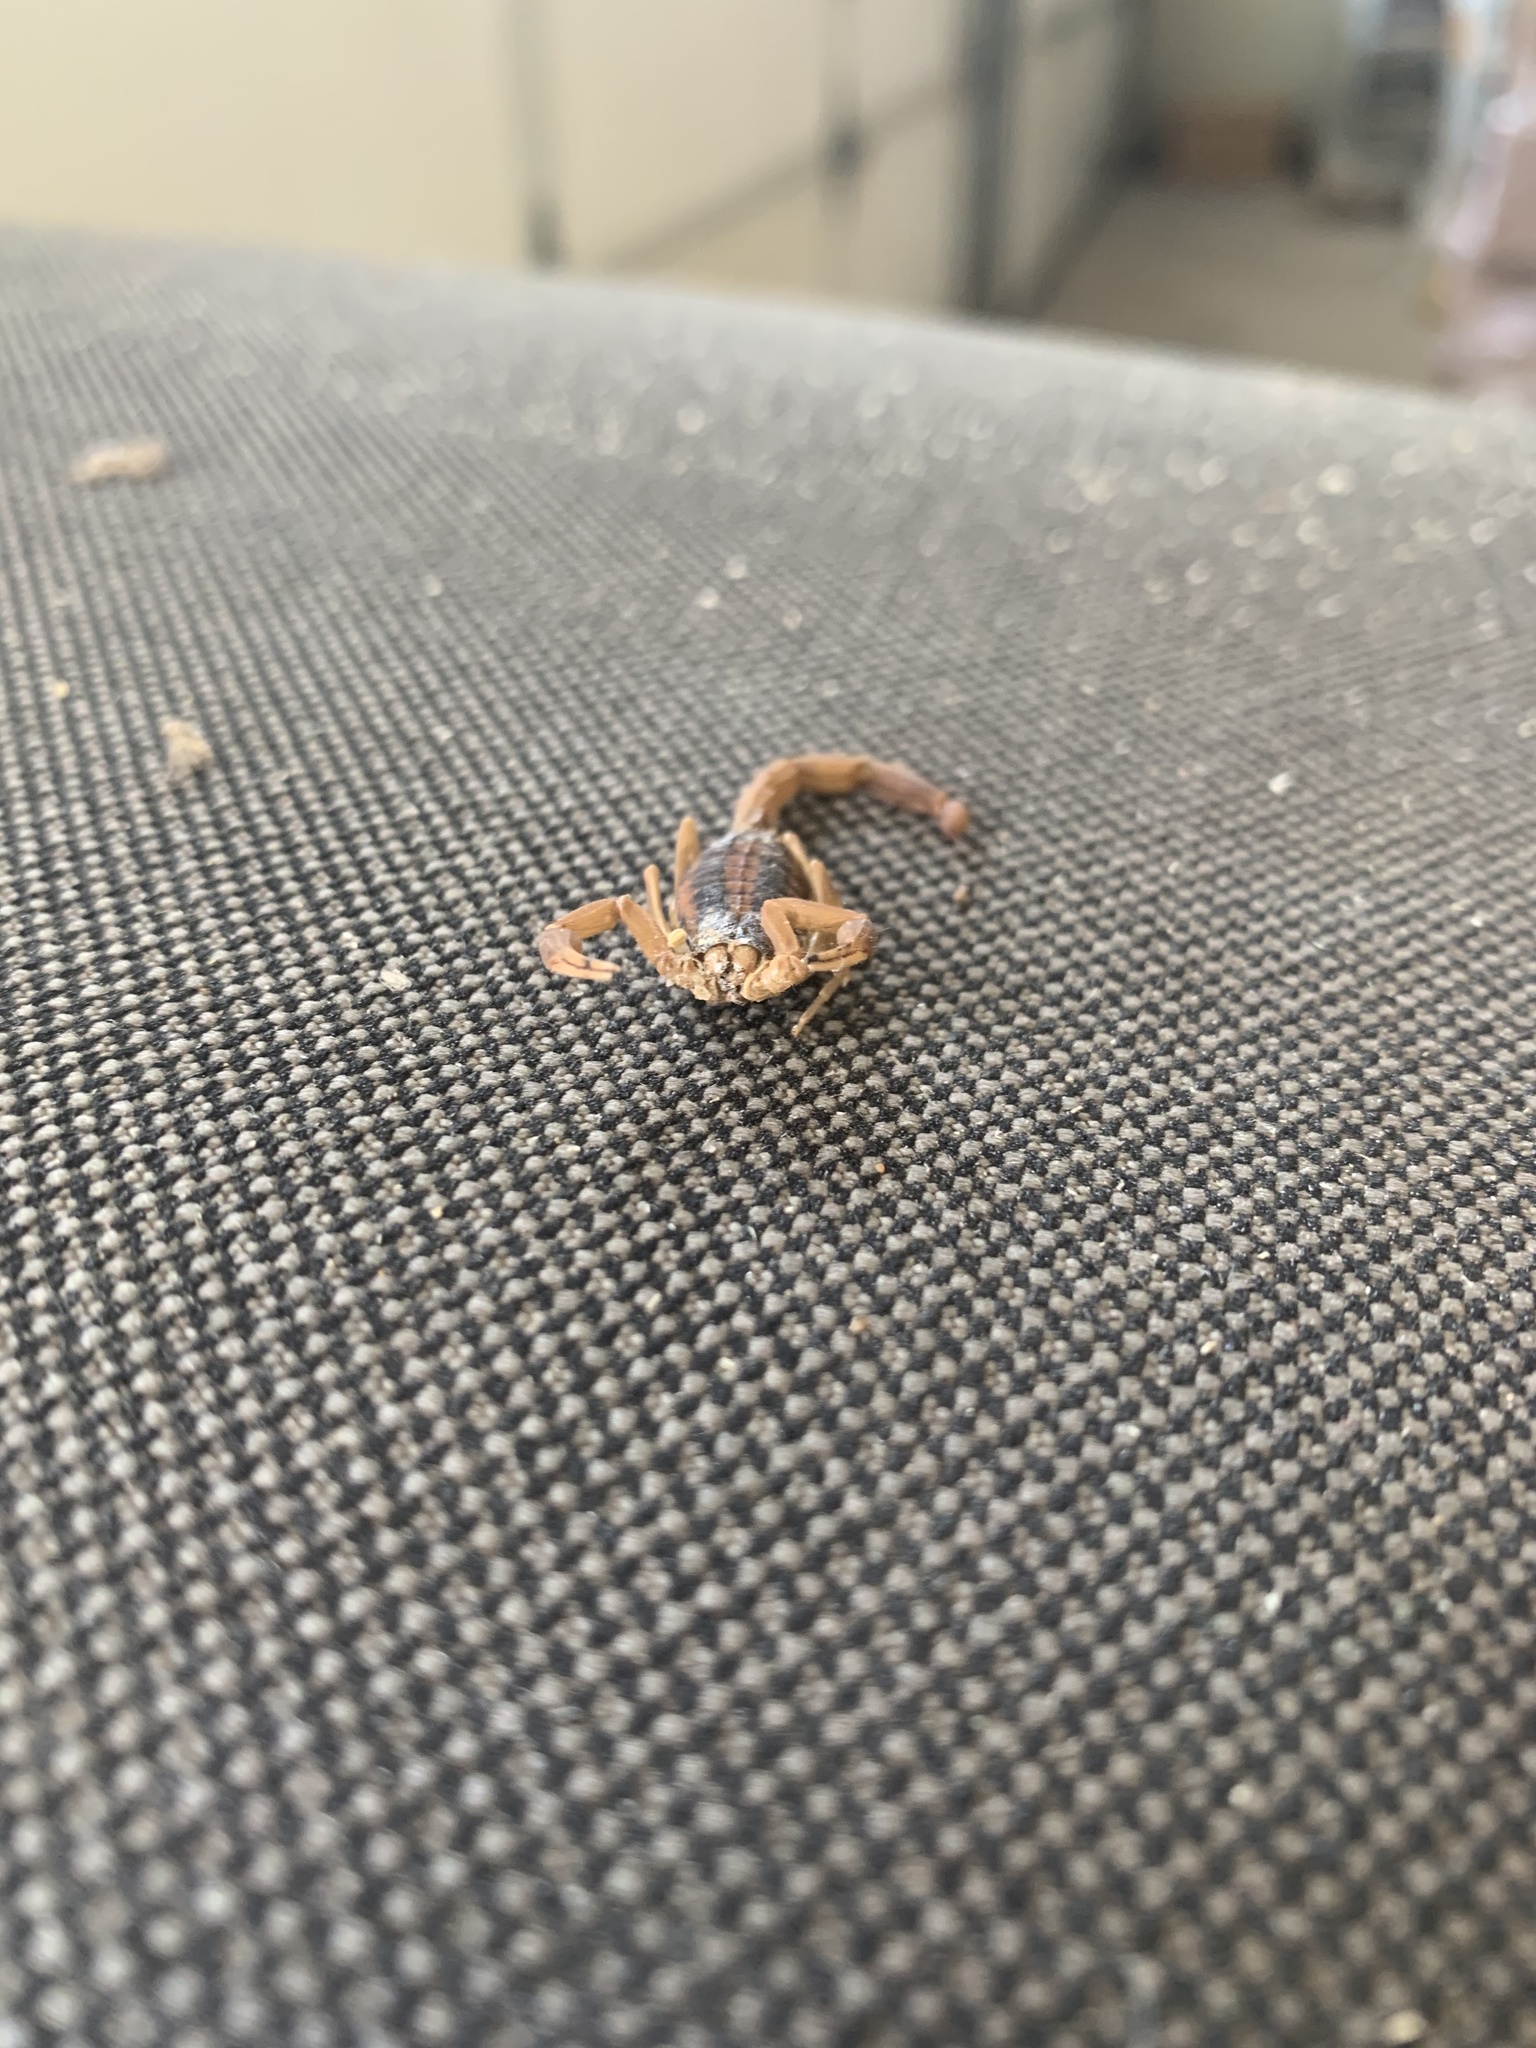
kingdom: Animalia
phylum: Arthropoda
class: Arachnida
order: Scorpiones
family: Buthidae
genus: Centruroides
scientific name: Centruroides vittatus
